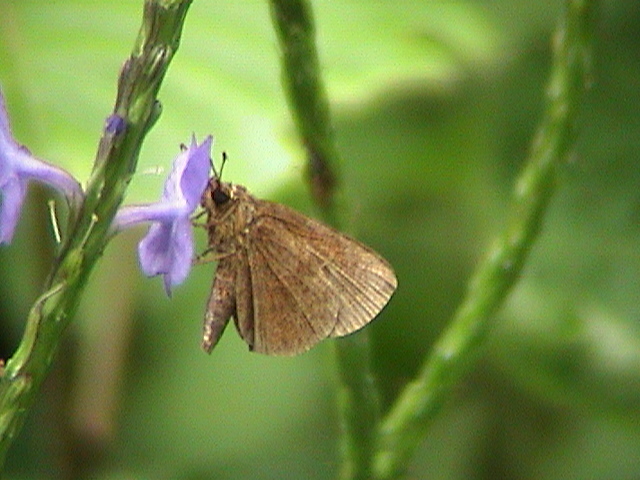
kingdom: Animalia
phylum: Arthropoda
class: Insecta
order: Lepidoptera
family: Hesperiidae
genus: Iambrix
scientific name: Iambrix salsala
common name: Chestnut bob
